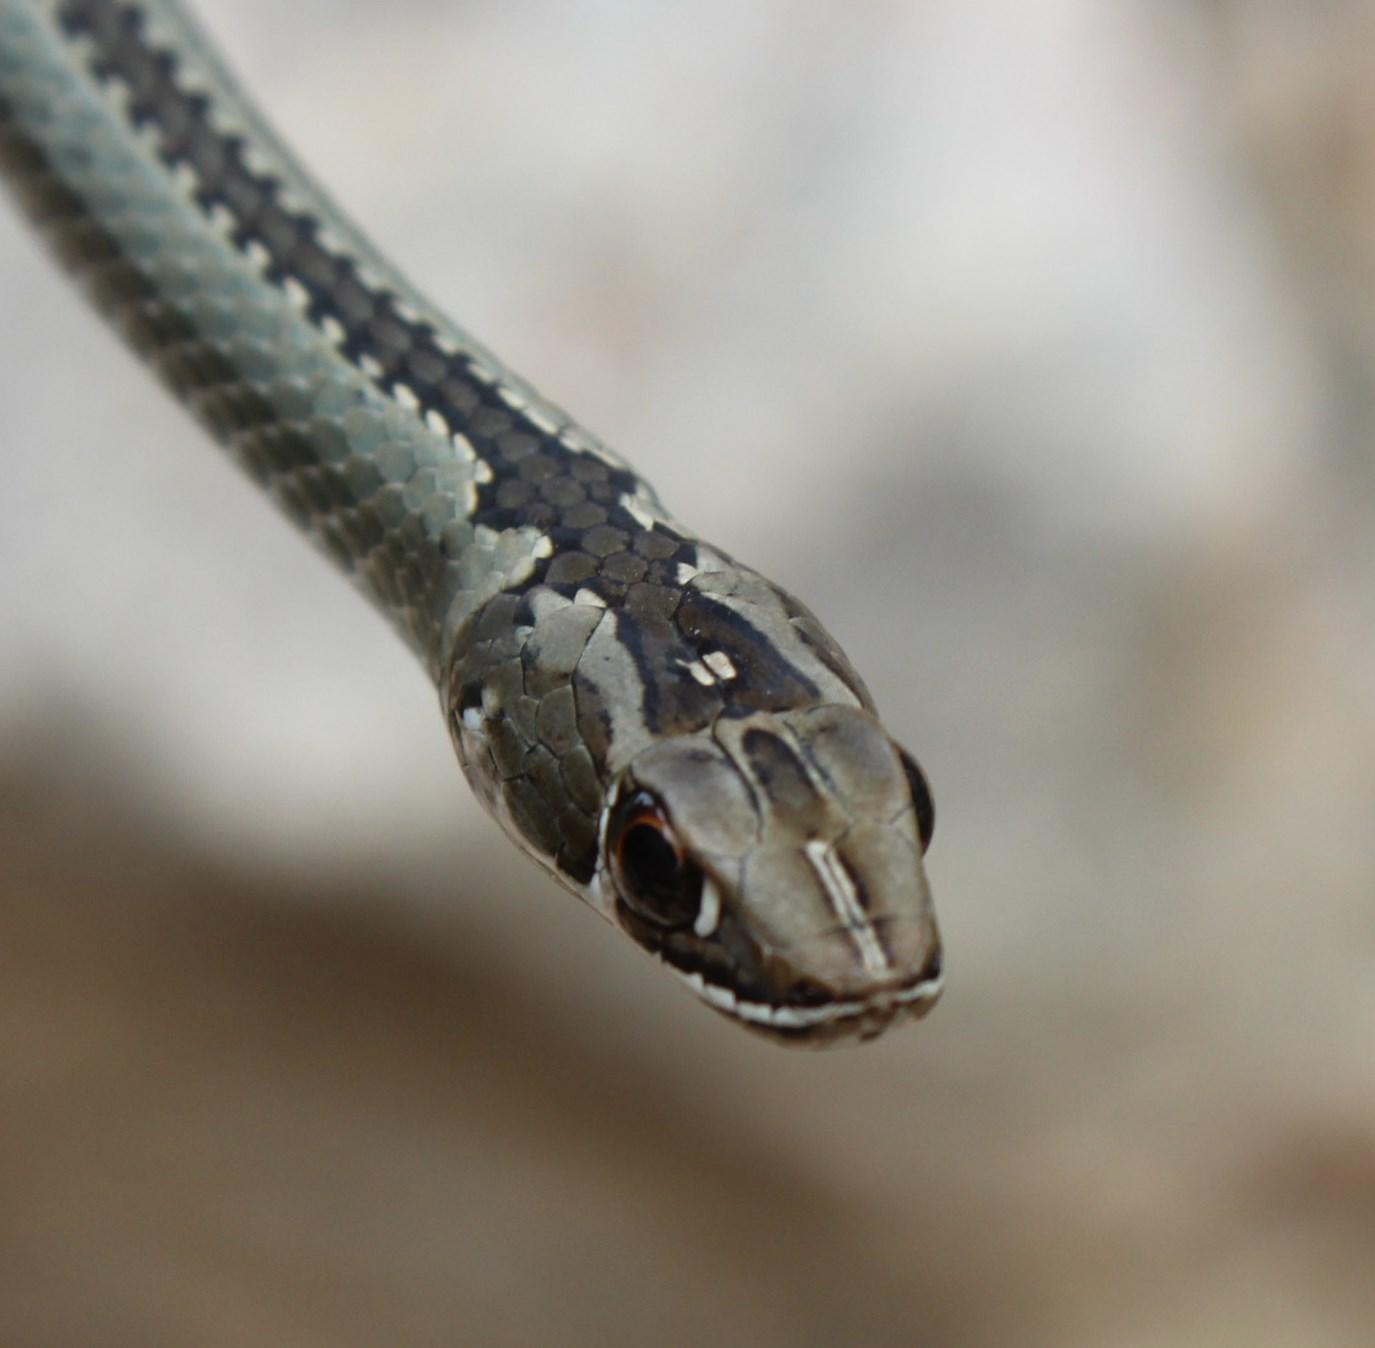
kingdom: Animalia
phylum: Chordata
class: Squamata
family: Psammophiidae
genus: Psammophis
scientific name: Psammophis crucifer
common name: Cross-marked grass snake
